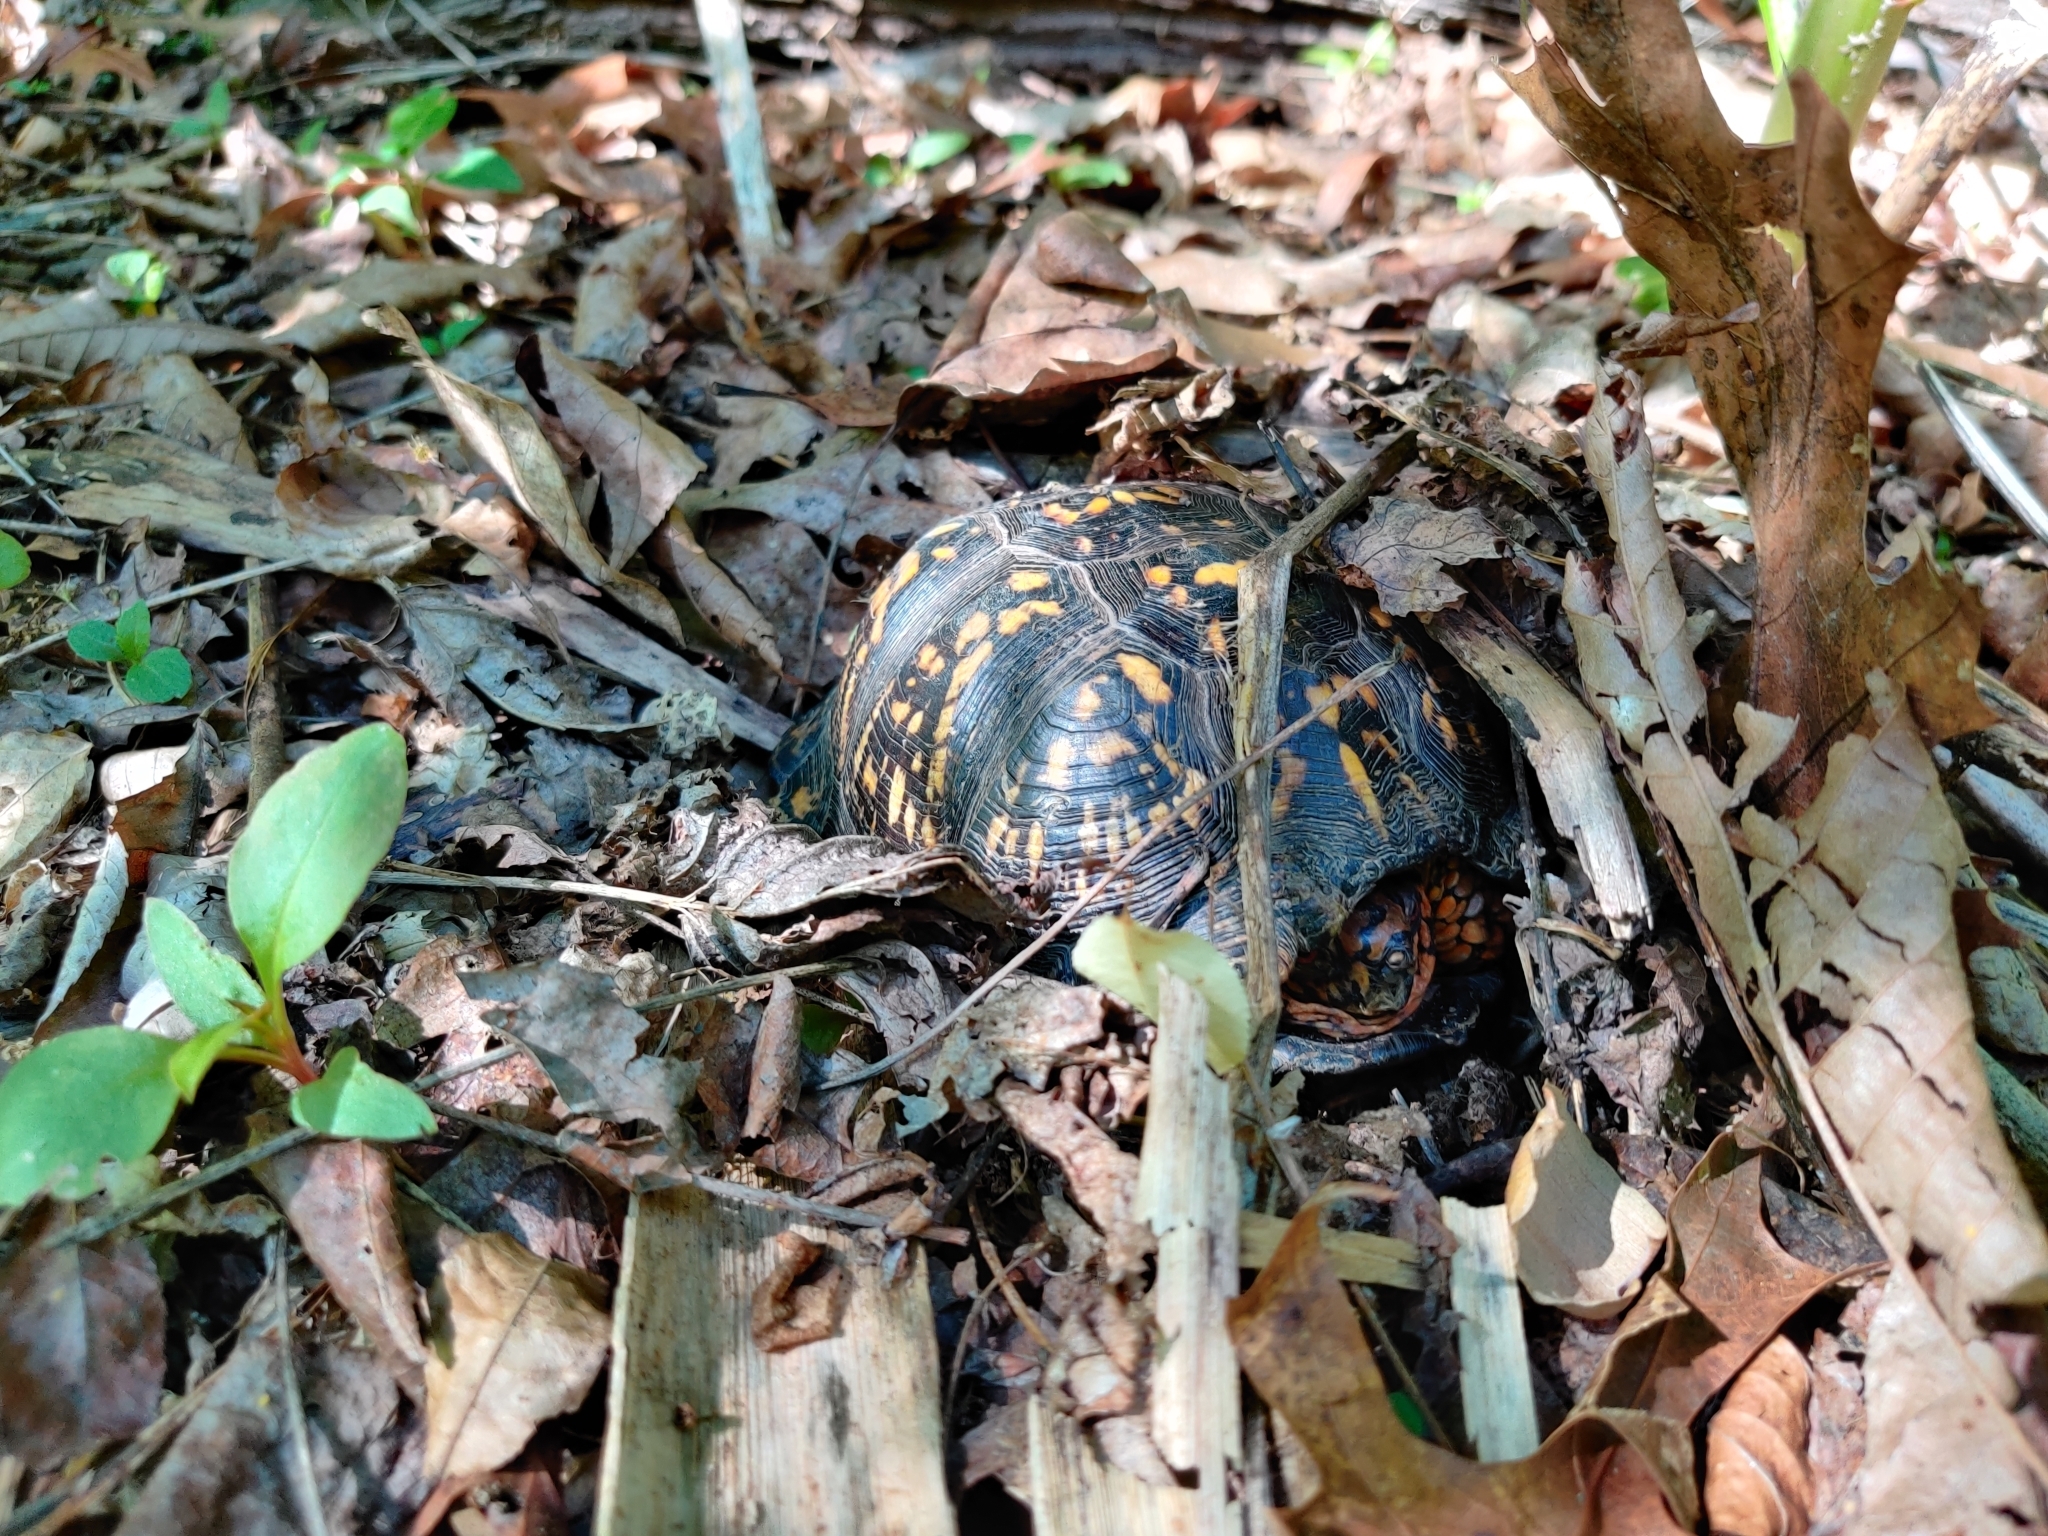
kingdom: Animalia
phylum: Chordata
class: Testudines
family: Emydidae
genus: Terrapene
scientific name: Terrapene carolina
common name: Common box turtle
